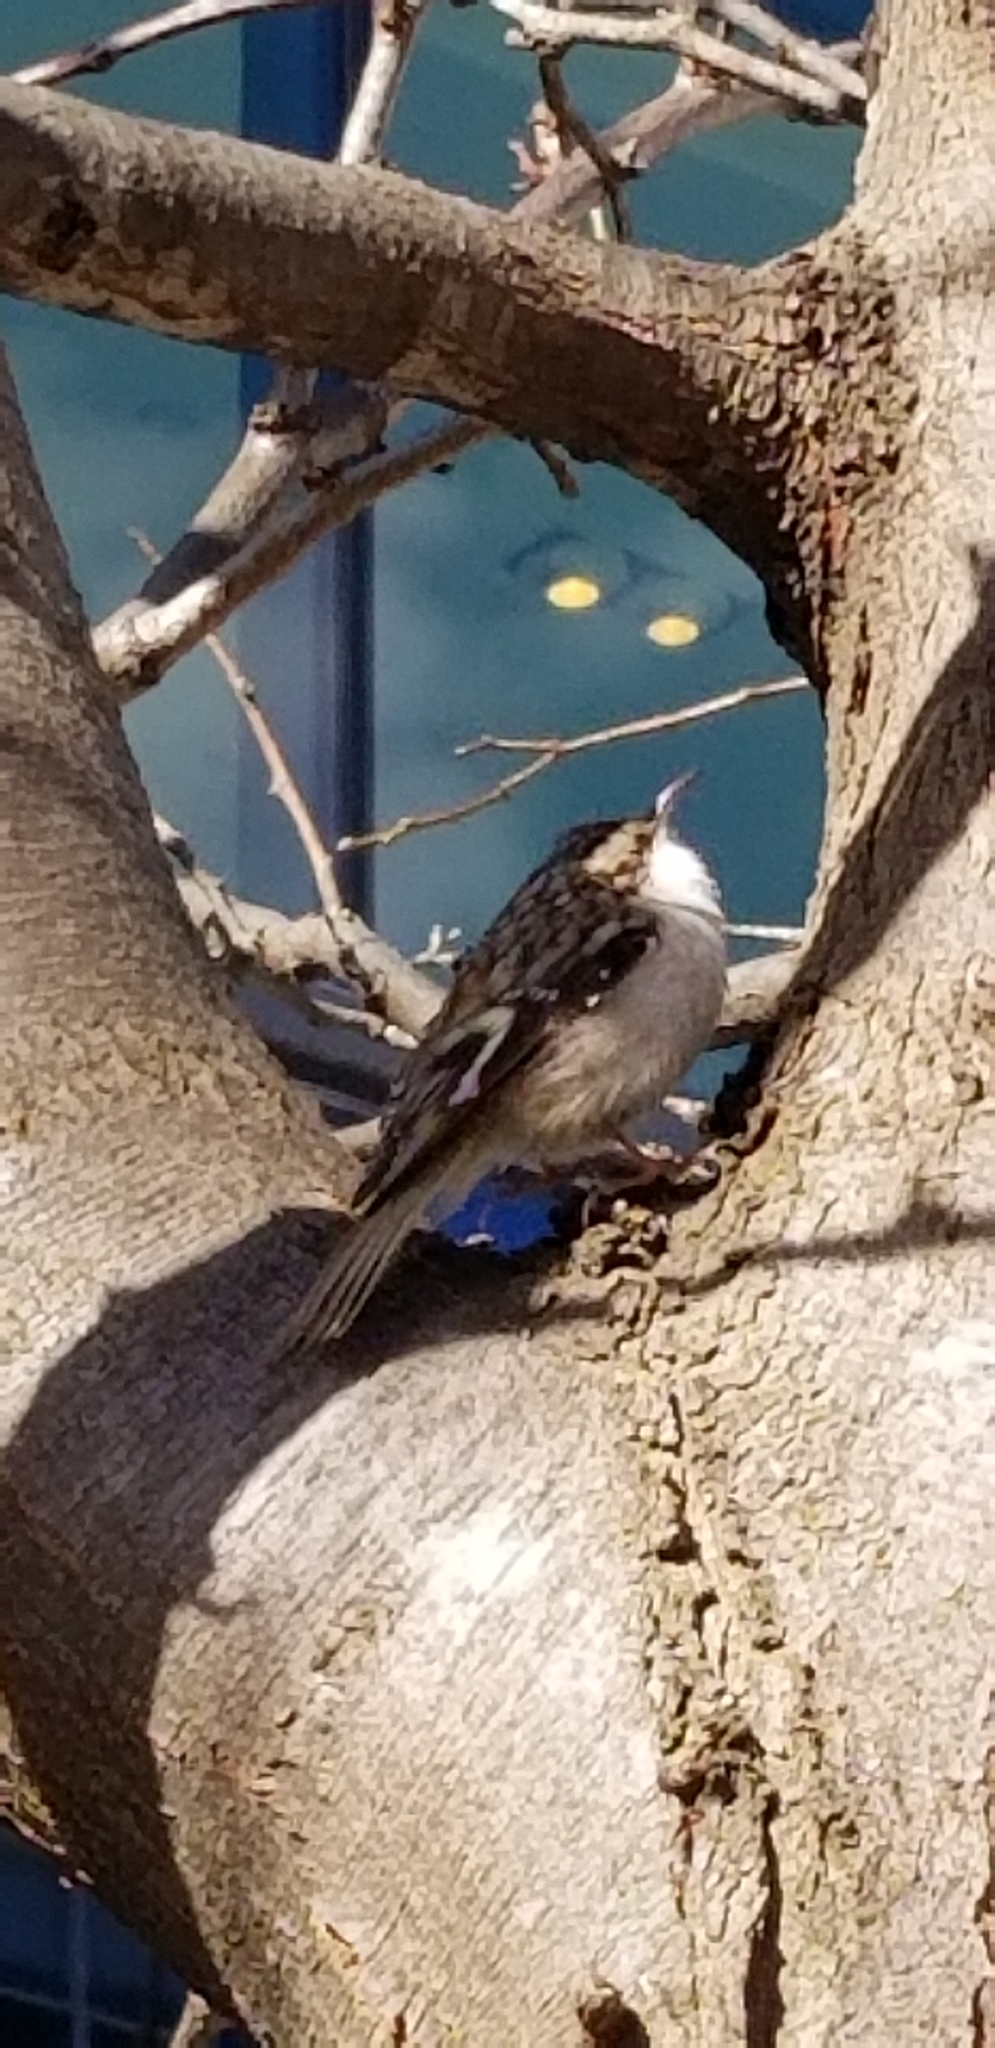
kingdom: Animalia
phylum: Chordata
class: Aves
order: Passeriformes
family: Certhiidae
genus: Certhia
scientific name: Certhia americana
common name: Brown creeper
